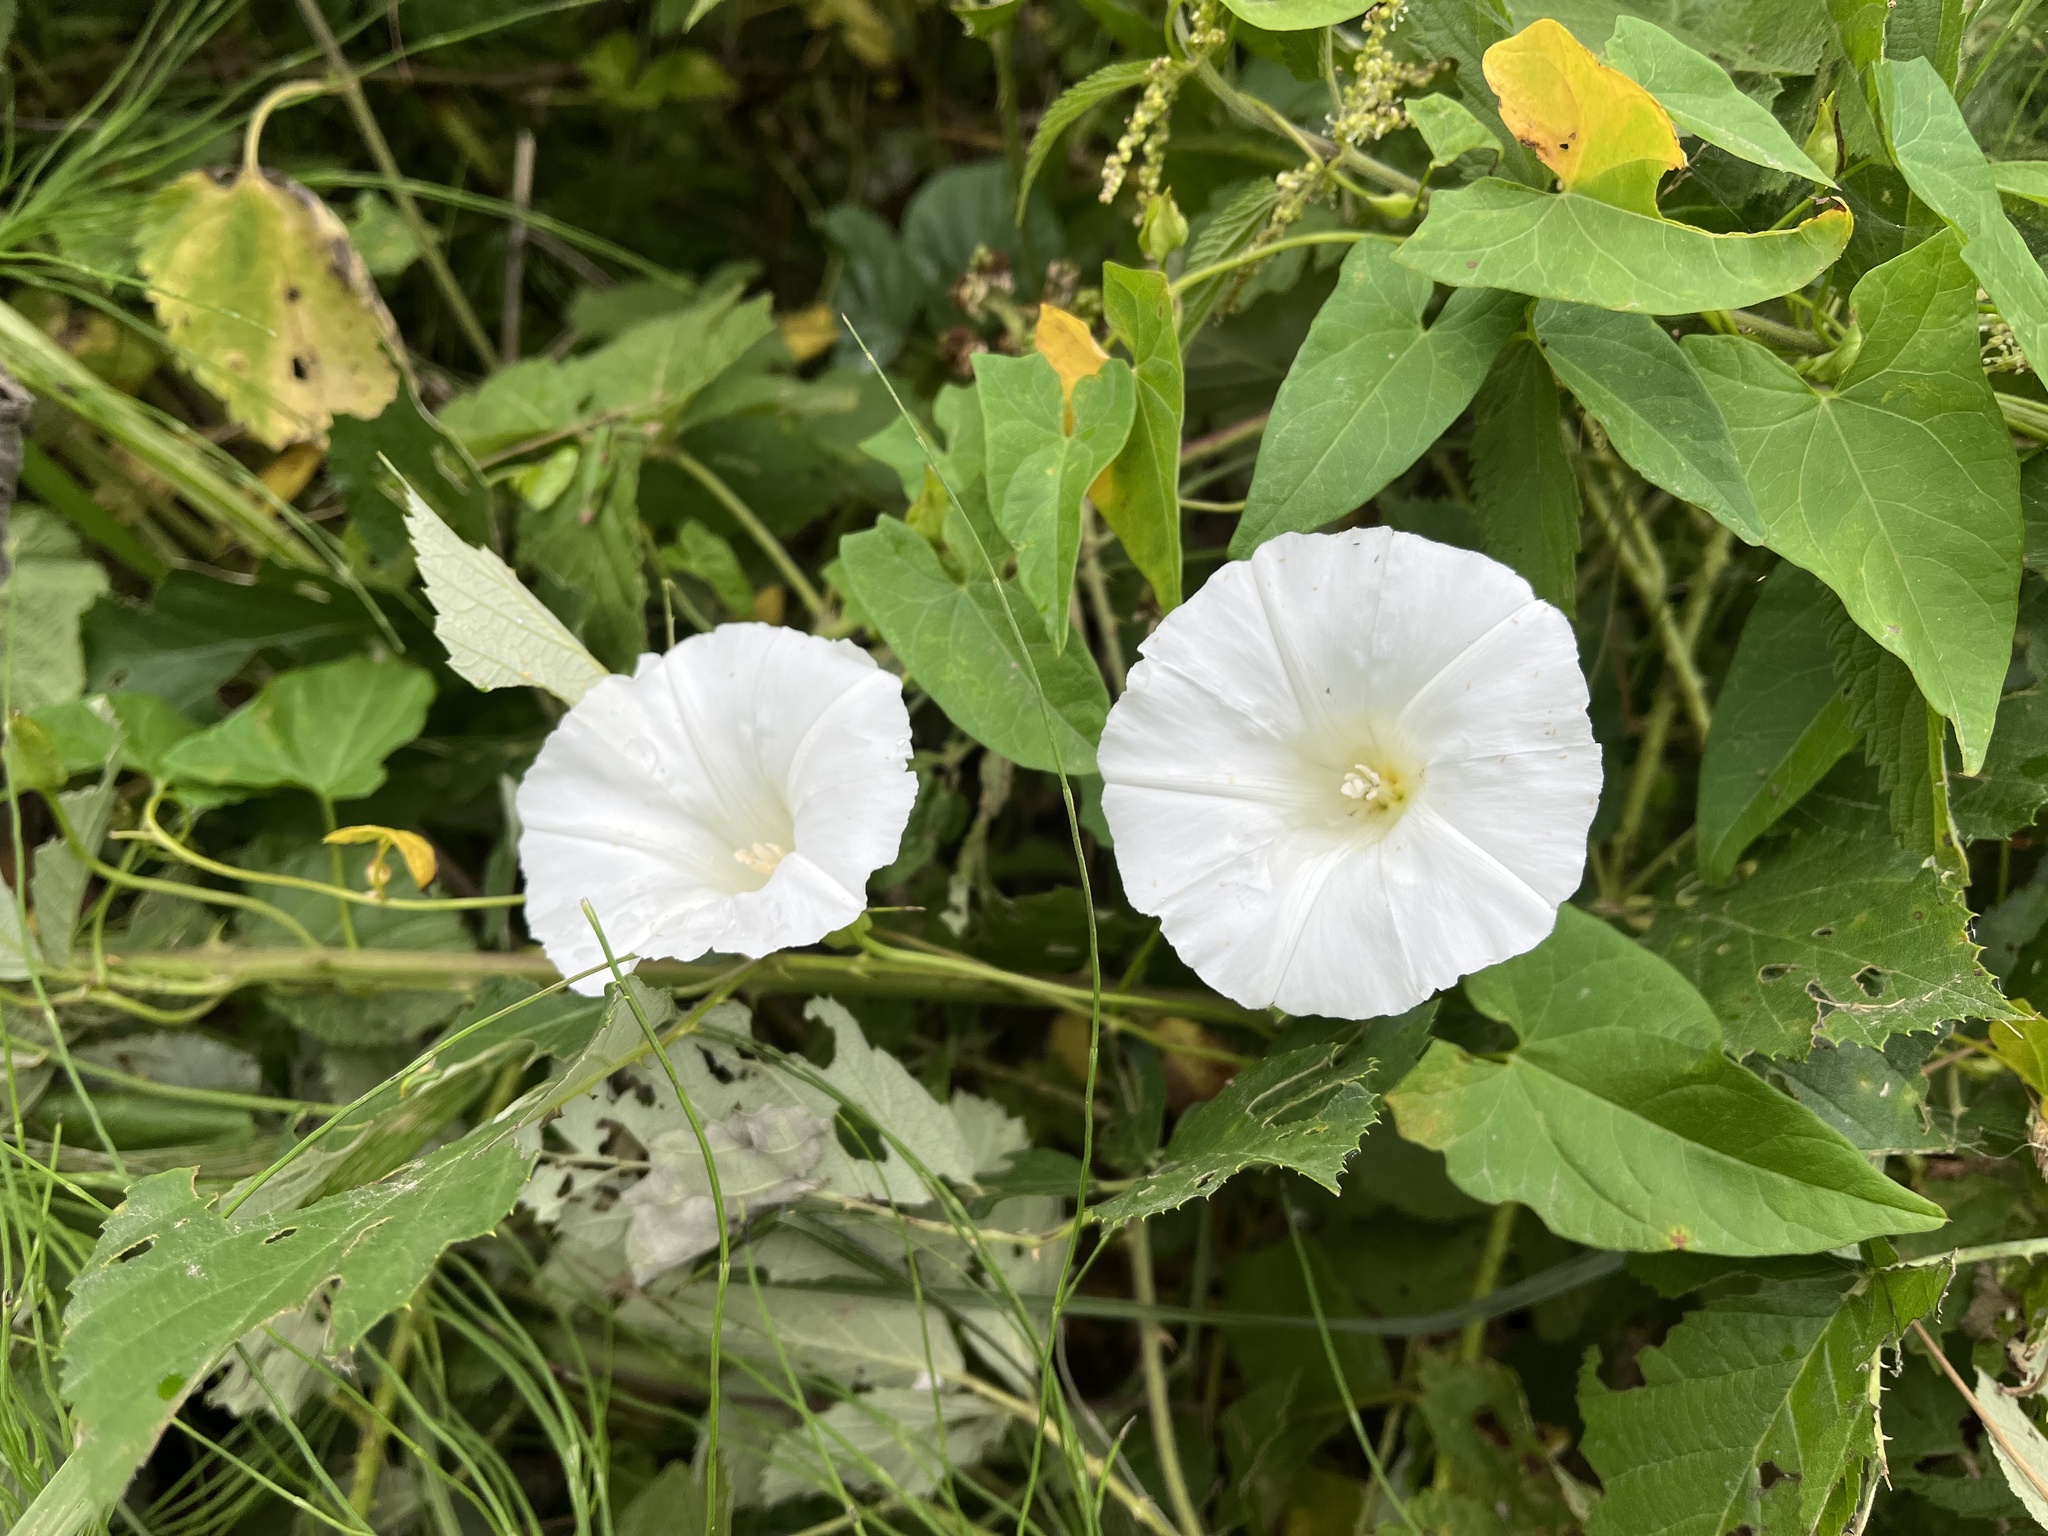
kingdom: Plantae
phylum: Tracheophyta
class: Magnoliopsida
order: Solanales
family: Convolvulaceae
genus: Calystegia
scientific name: Calystegia sepium
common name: Hedge bindweed
